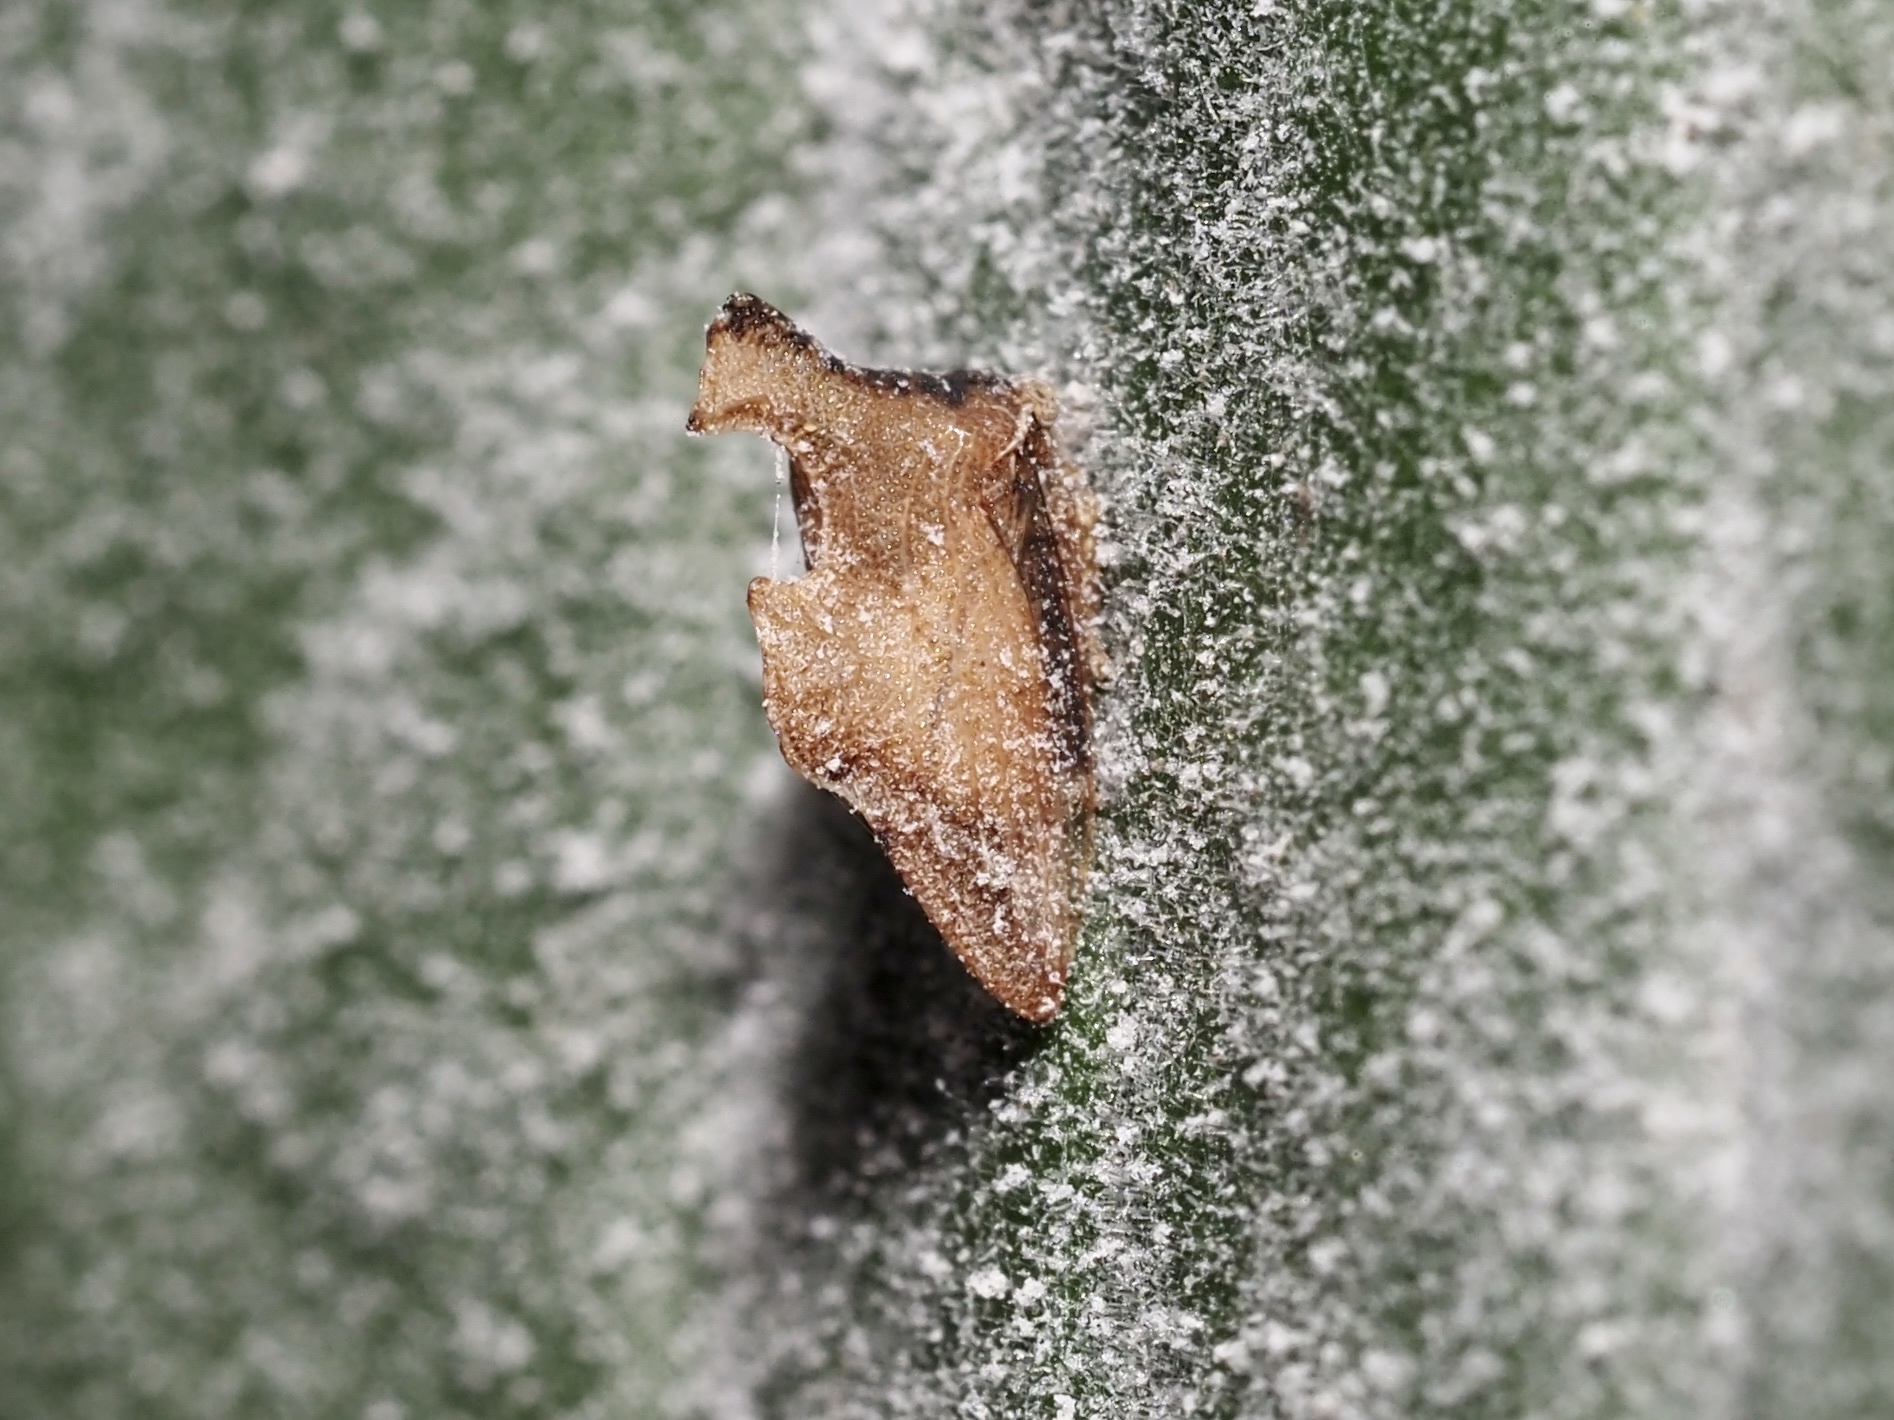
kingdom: Animalia
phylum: Arthropoda
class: Insecta
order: Hemiptera
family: Membracidae
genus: Entylia
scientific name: Entylia carinata
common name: Keeled treehopper
